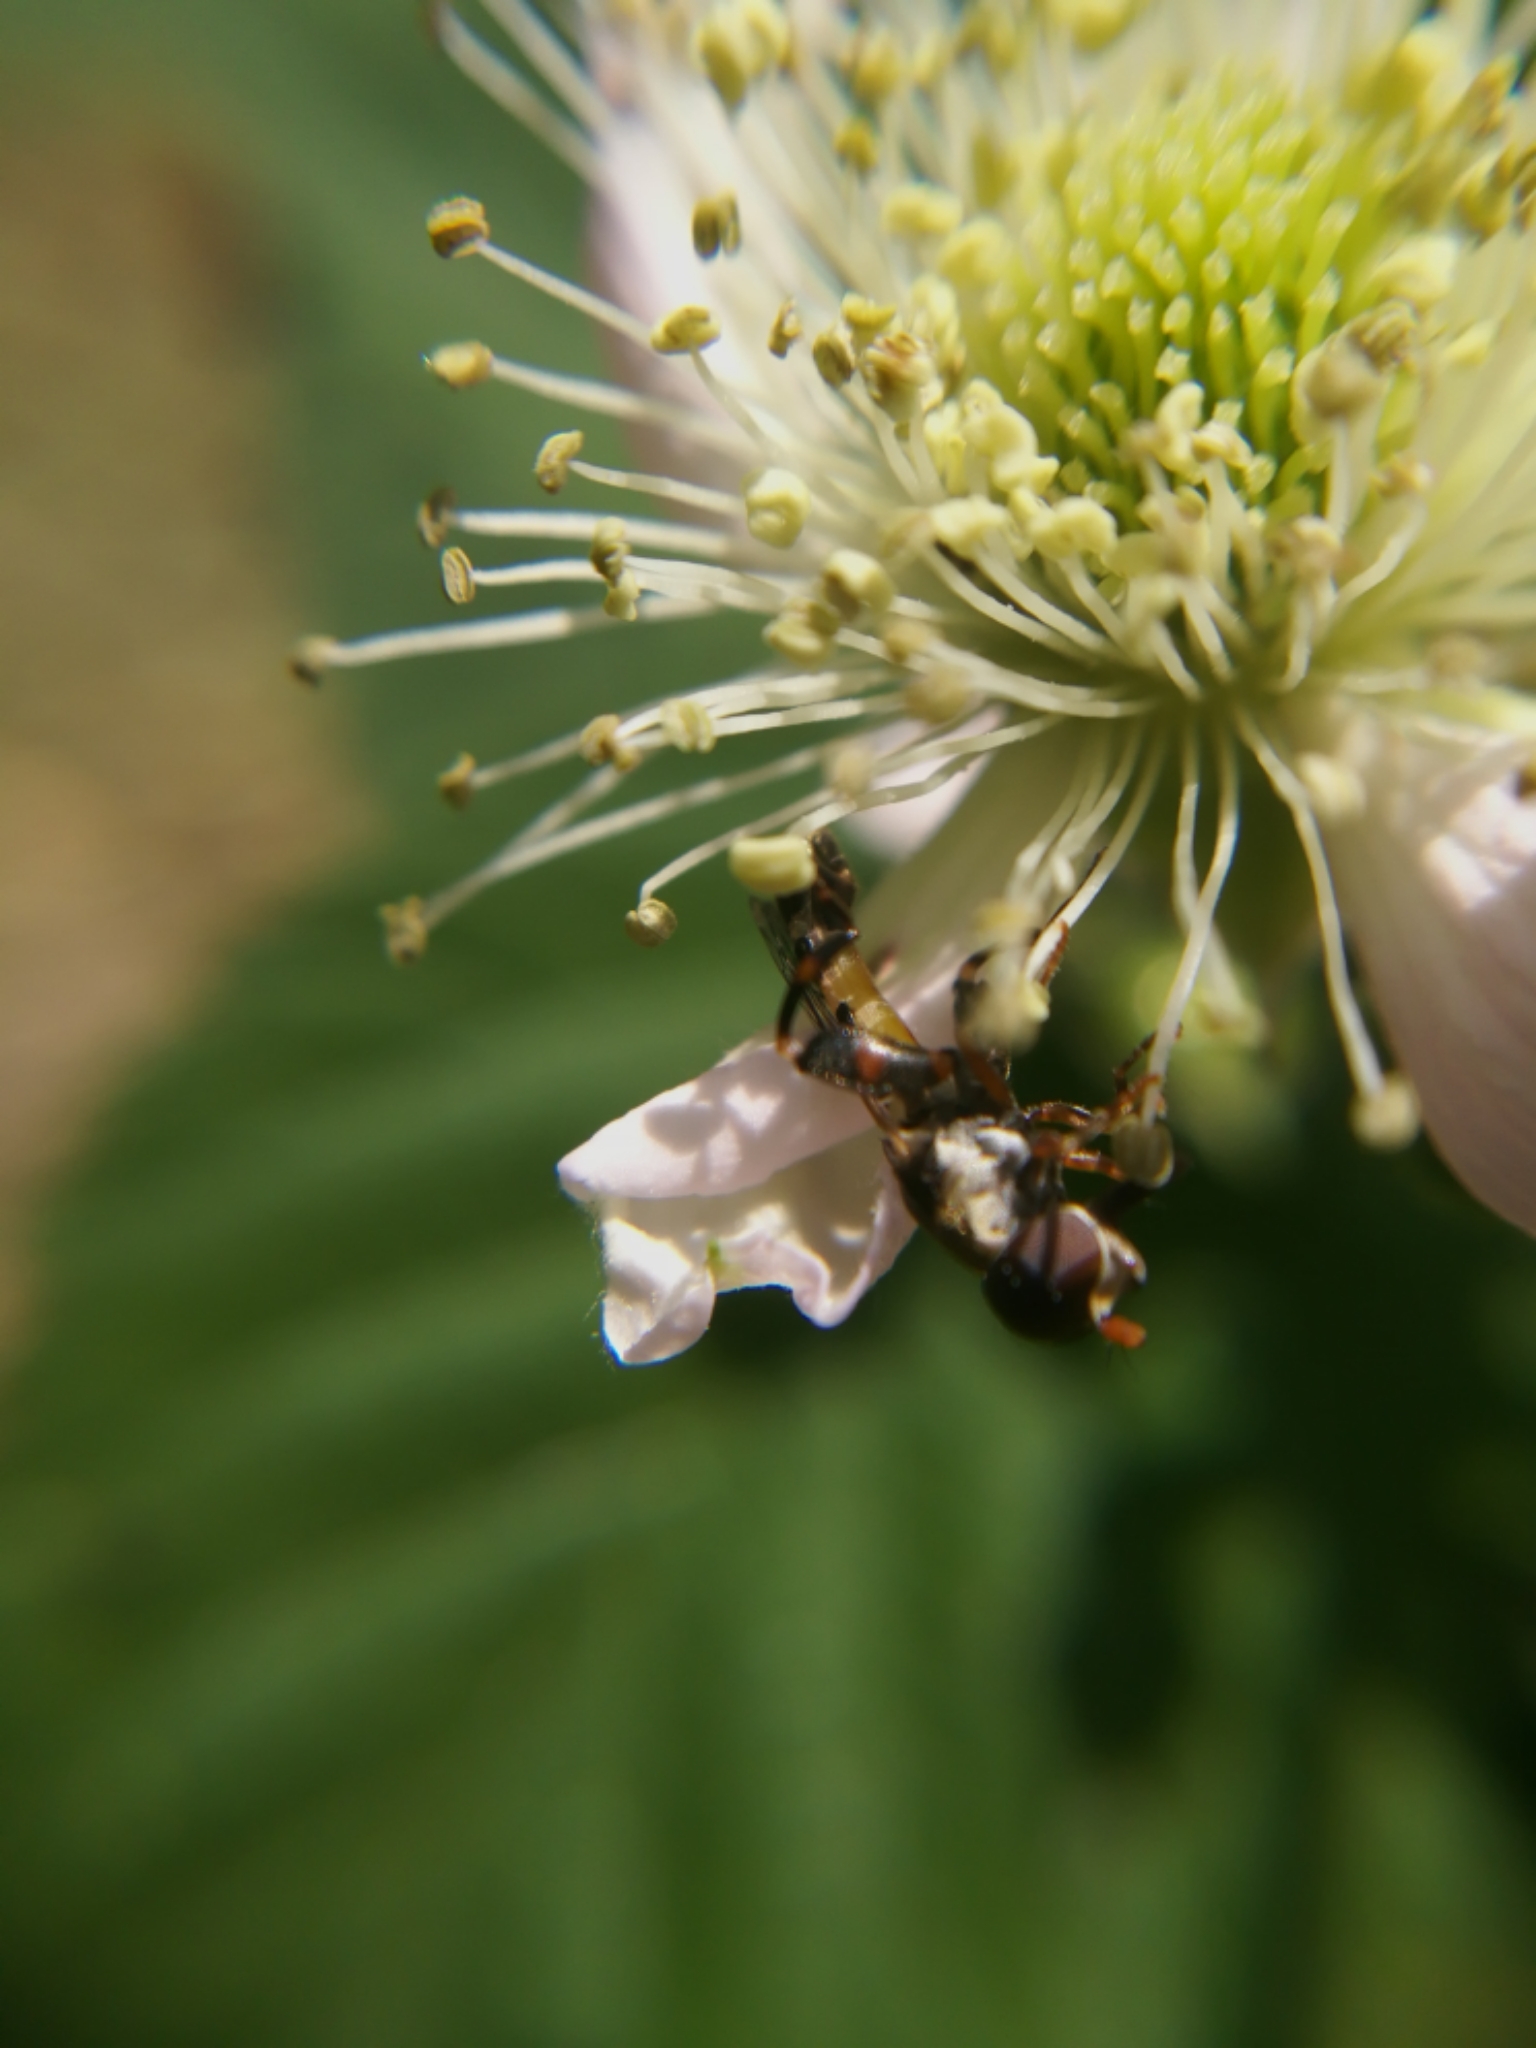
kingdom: Animalia
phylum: Arthropoda
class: Insecta
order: Diptera
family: Syrphidae
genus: Syritta
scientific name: Syritta pipiens
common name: Hover fly
